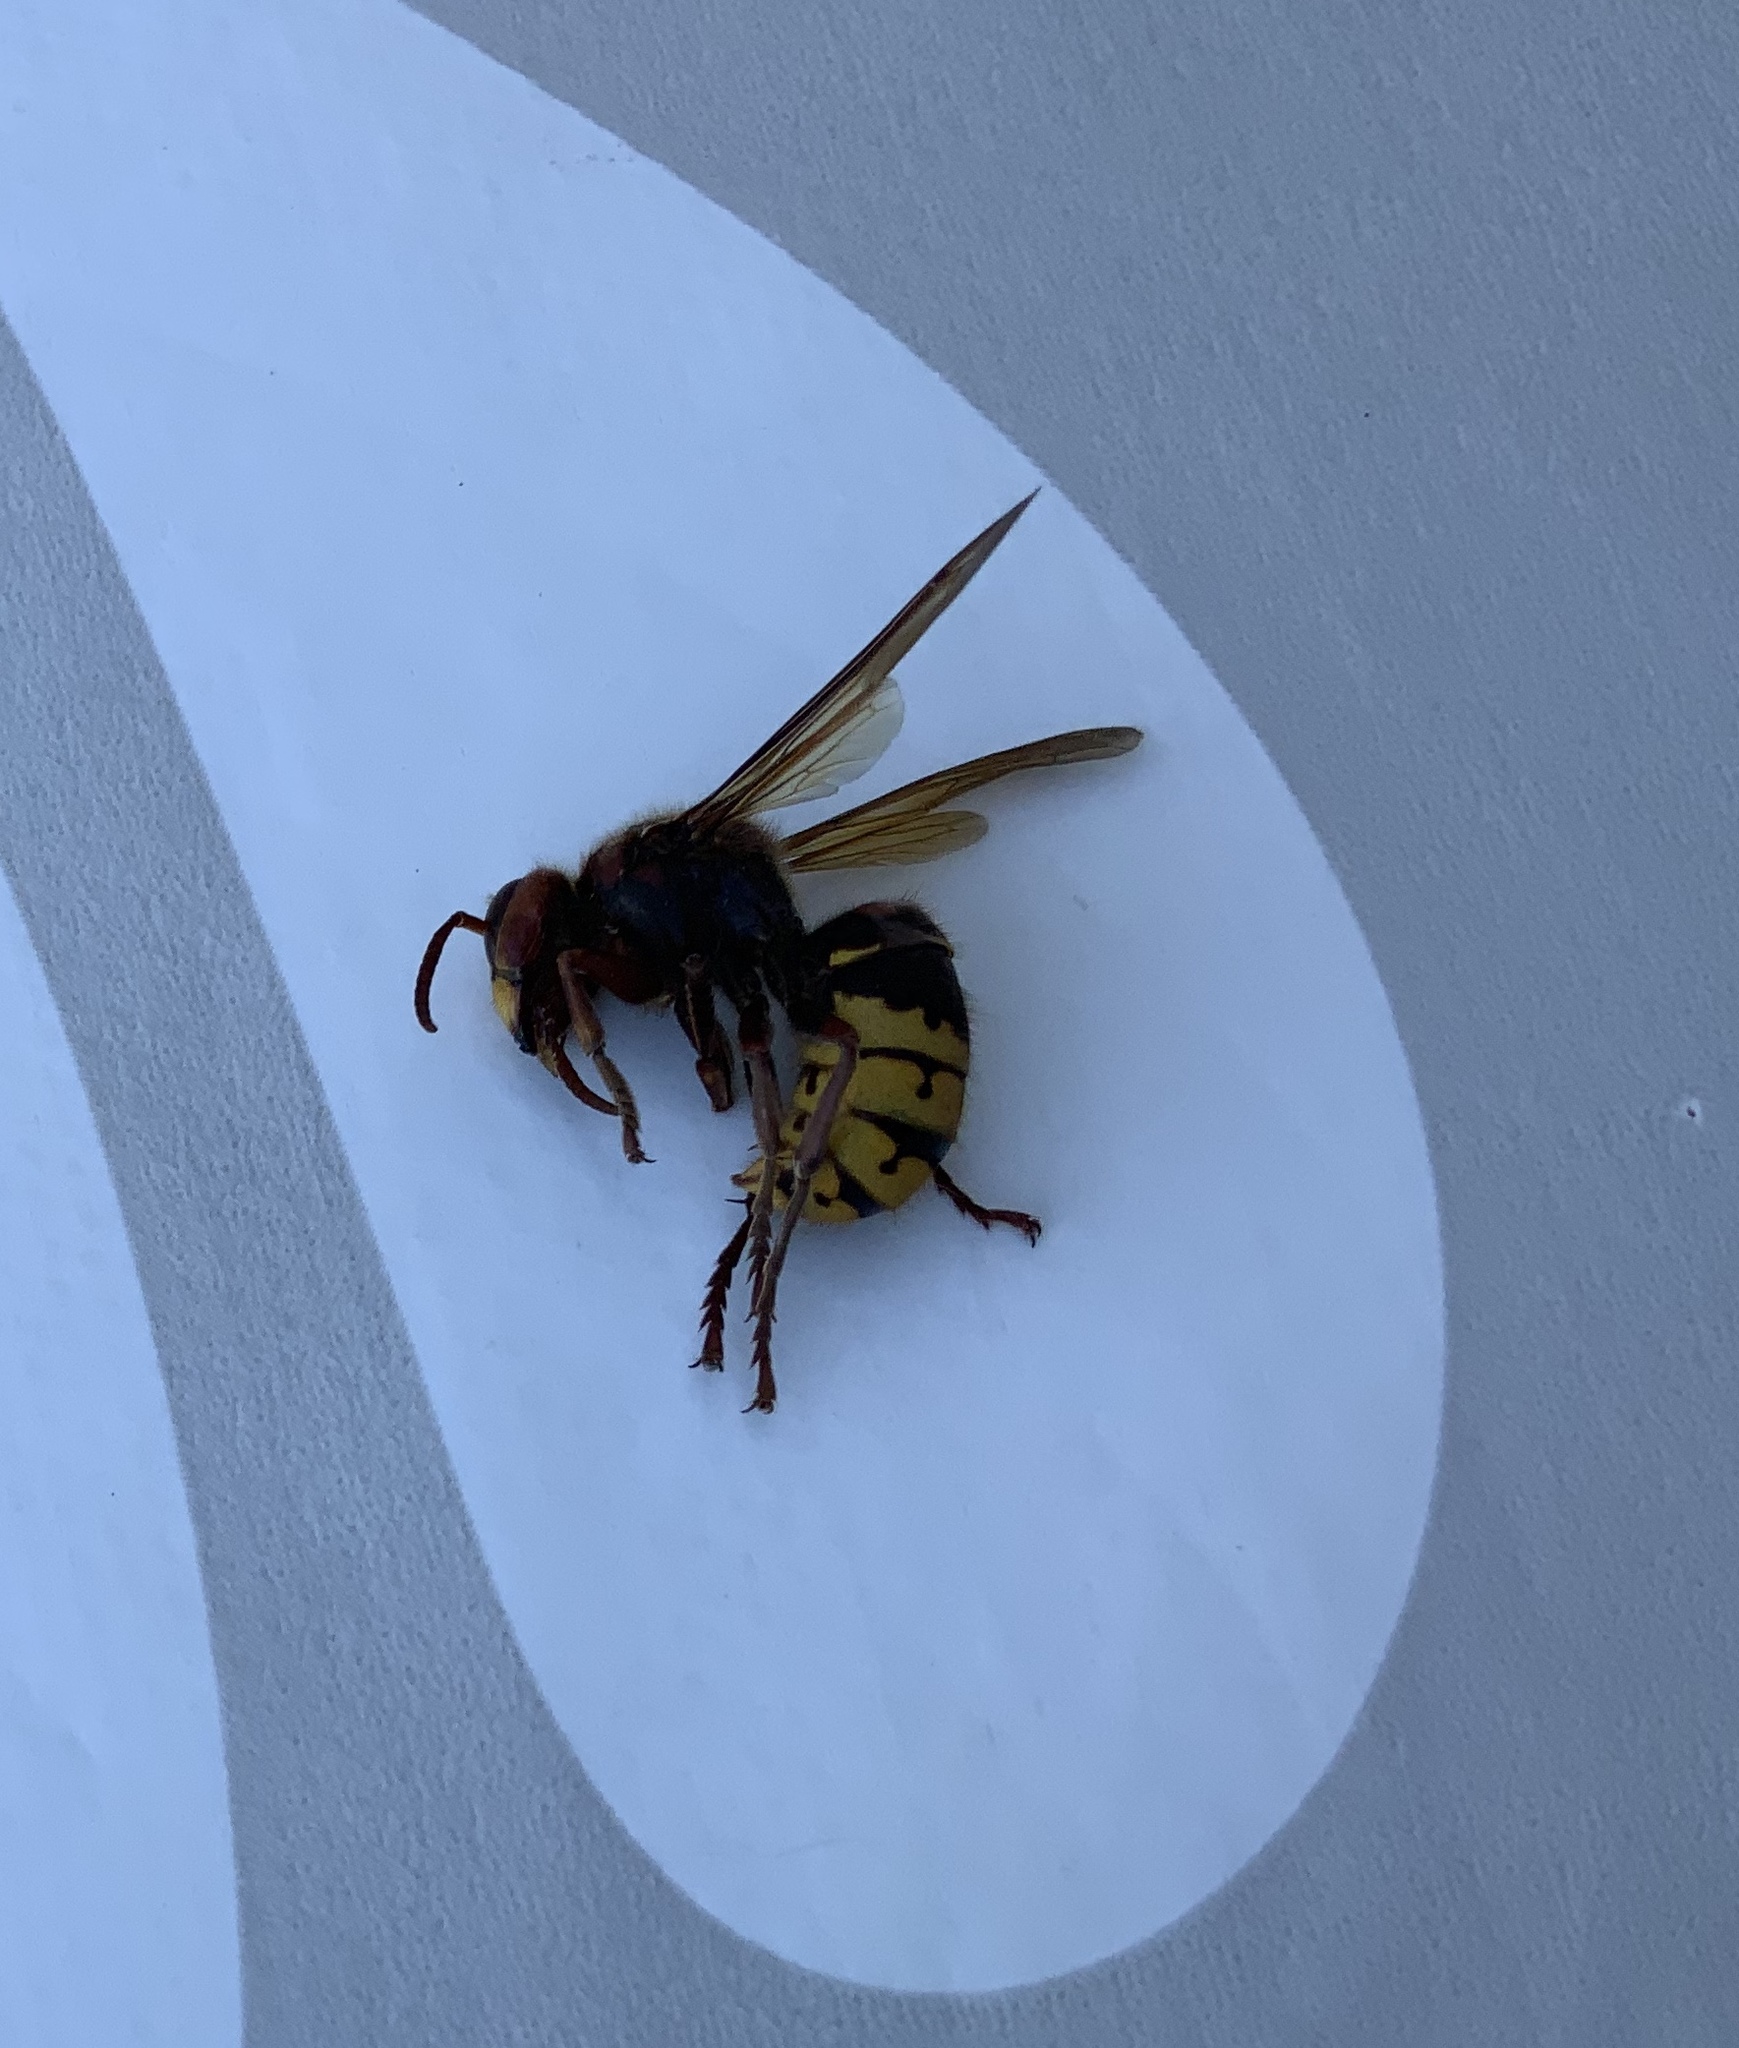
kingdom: Animalia
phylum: Arthropoda
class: Insecta
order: Hymenoptera
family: Vespidae
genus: Vespa
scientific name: Vespa crabro
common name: Hornet
